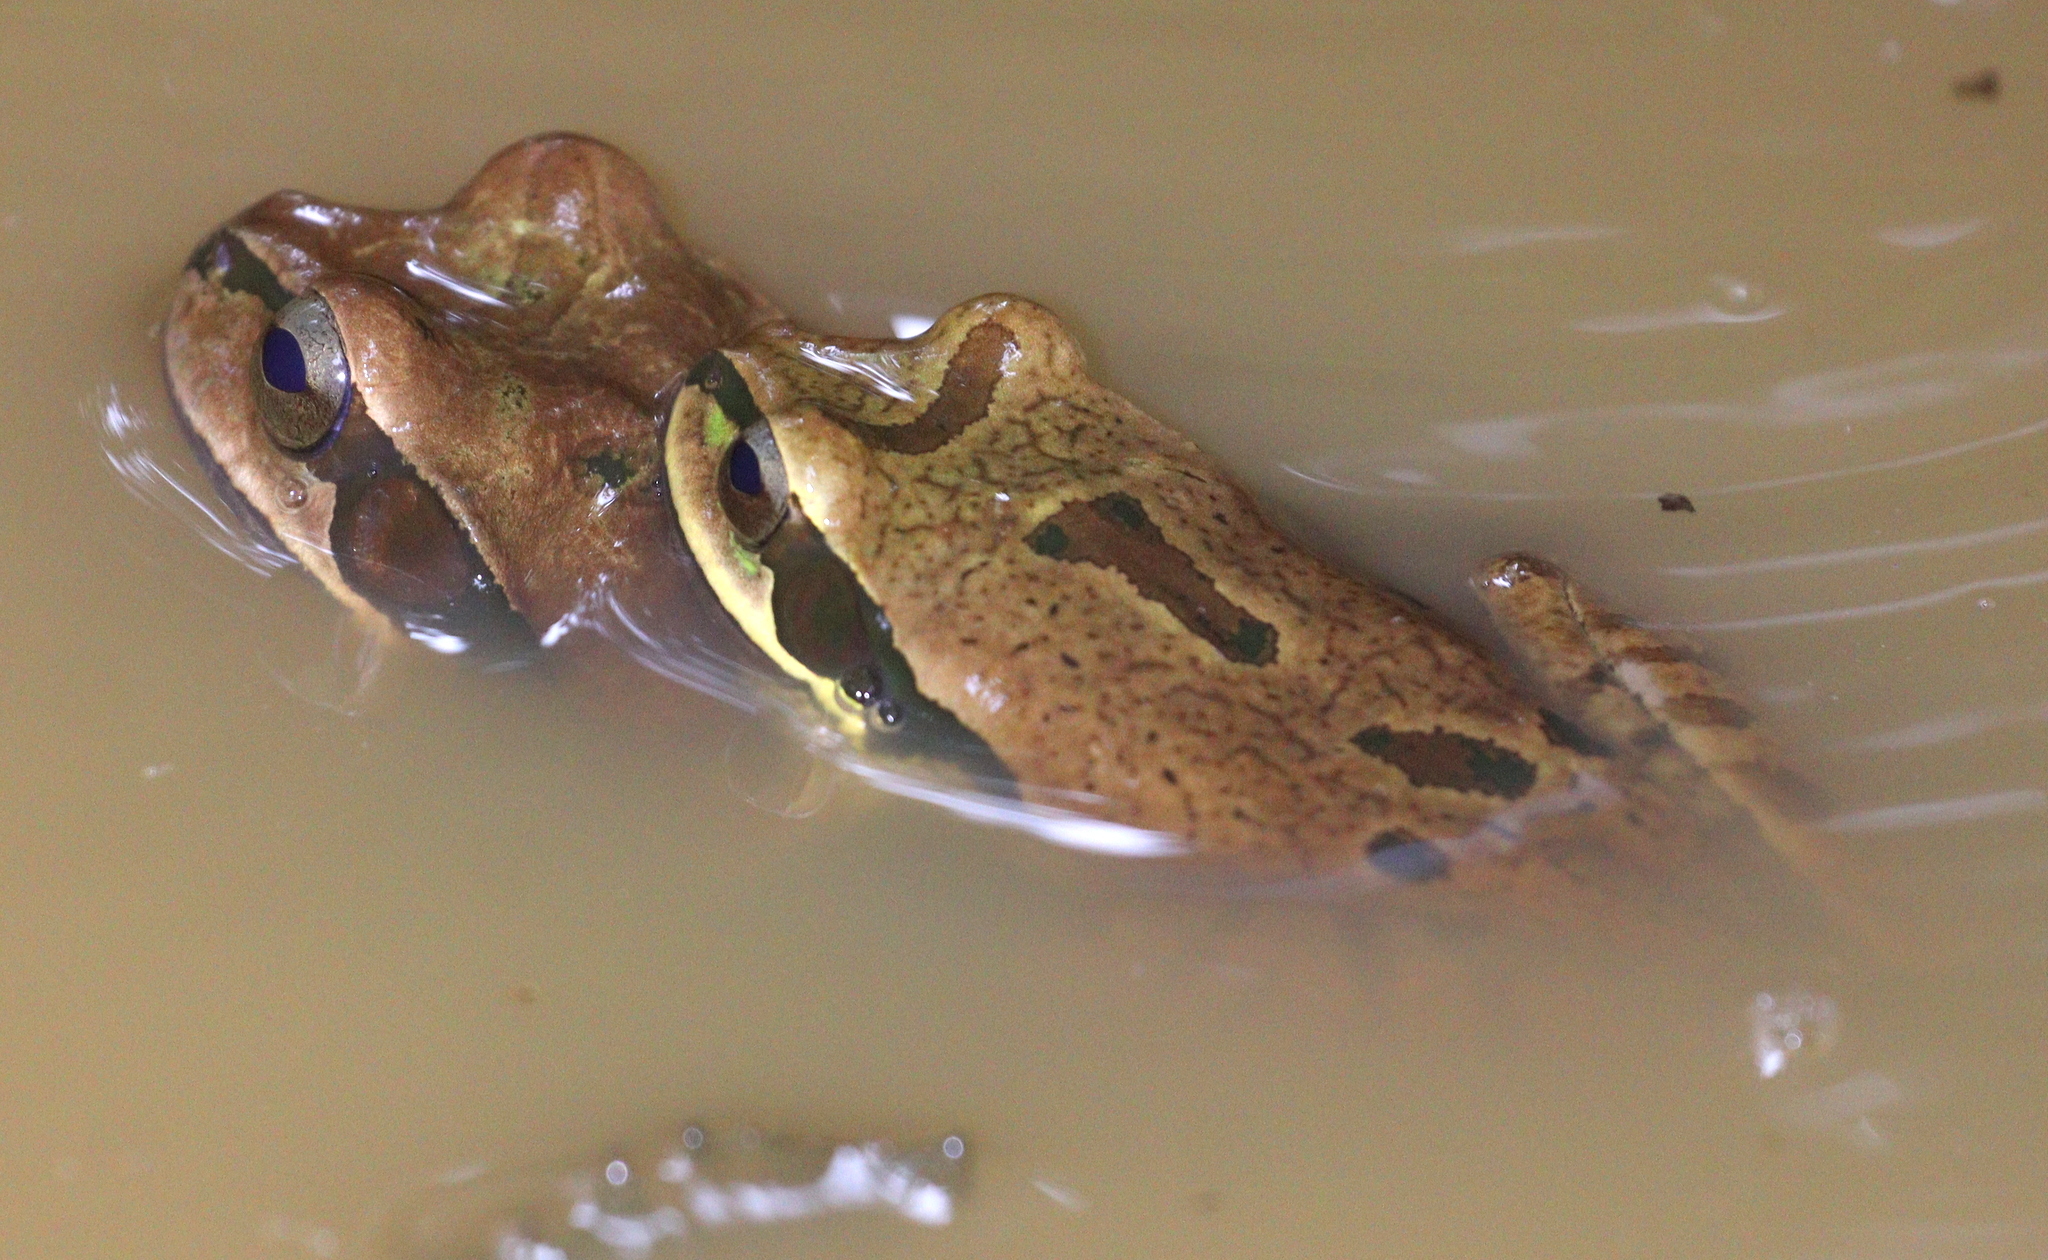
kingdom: Animalia
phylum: Chordata
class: Amphibia
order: Anura
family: Hylidae
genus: Smilisca
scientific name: Smilisca phaeota
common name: Central american smilisca
